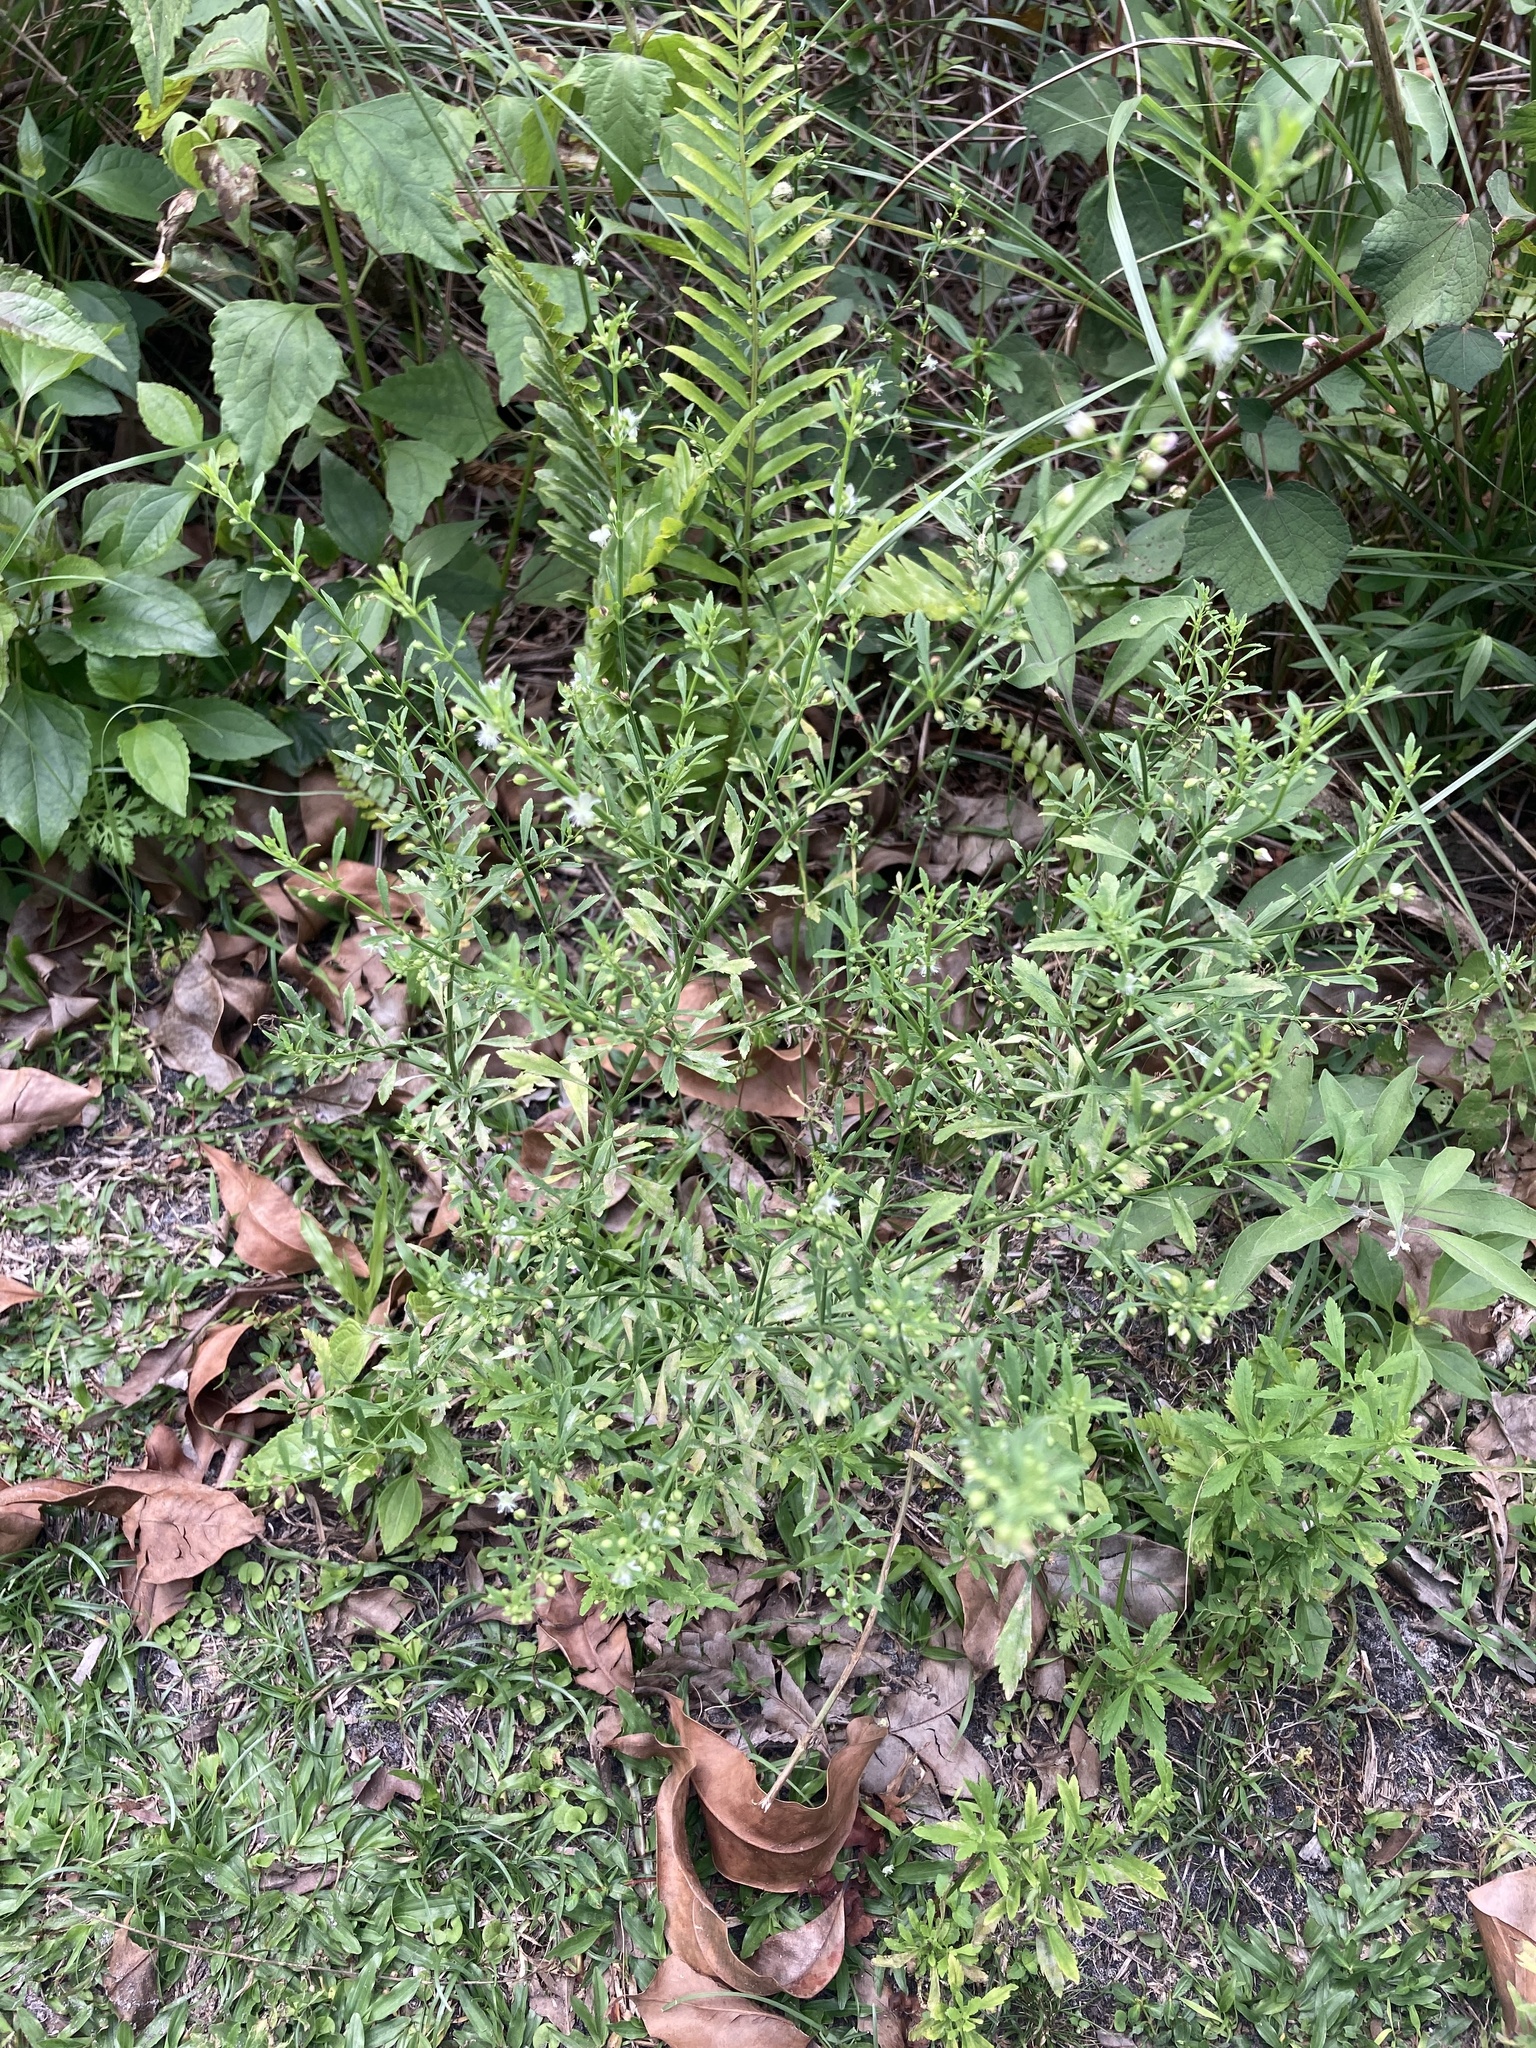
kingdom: Plantae
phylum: Tracheophyta
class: Magnoliopsida
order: Lamiales
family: Plantaginaceae
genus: Scoparia
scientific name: Scoparia dulcis
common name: Scoparia-weed
